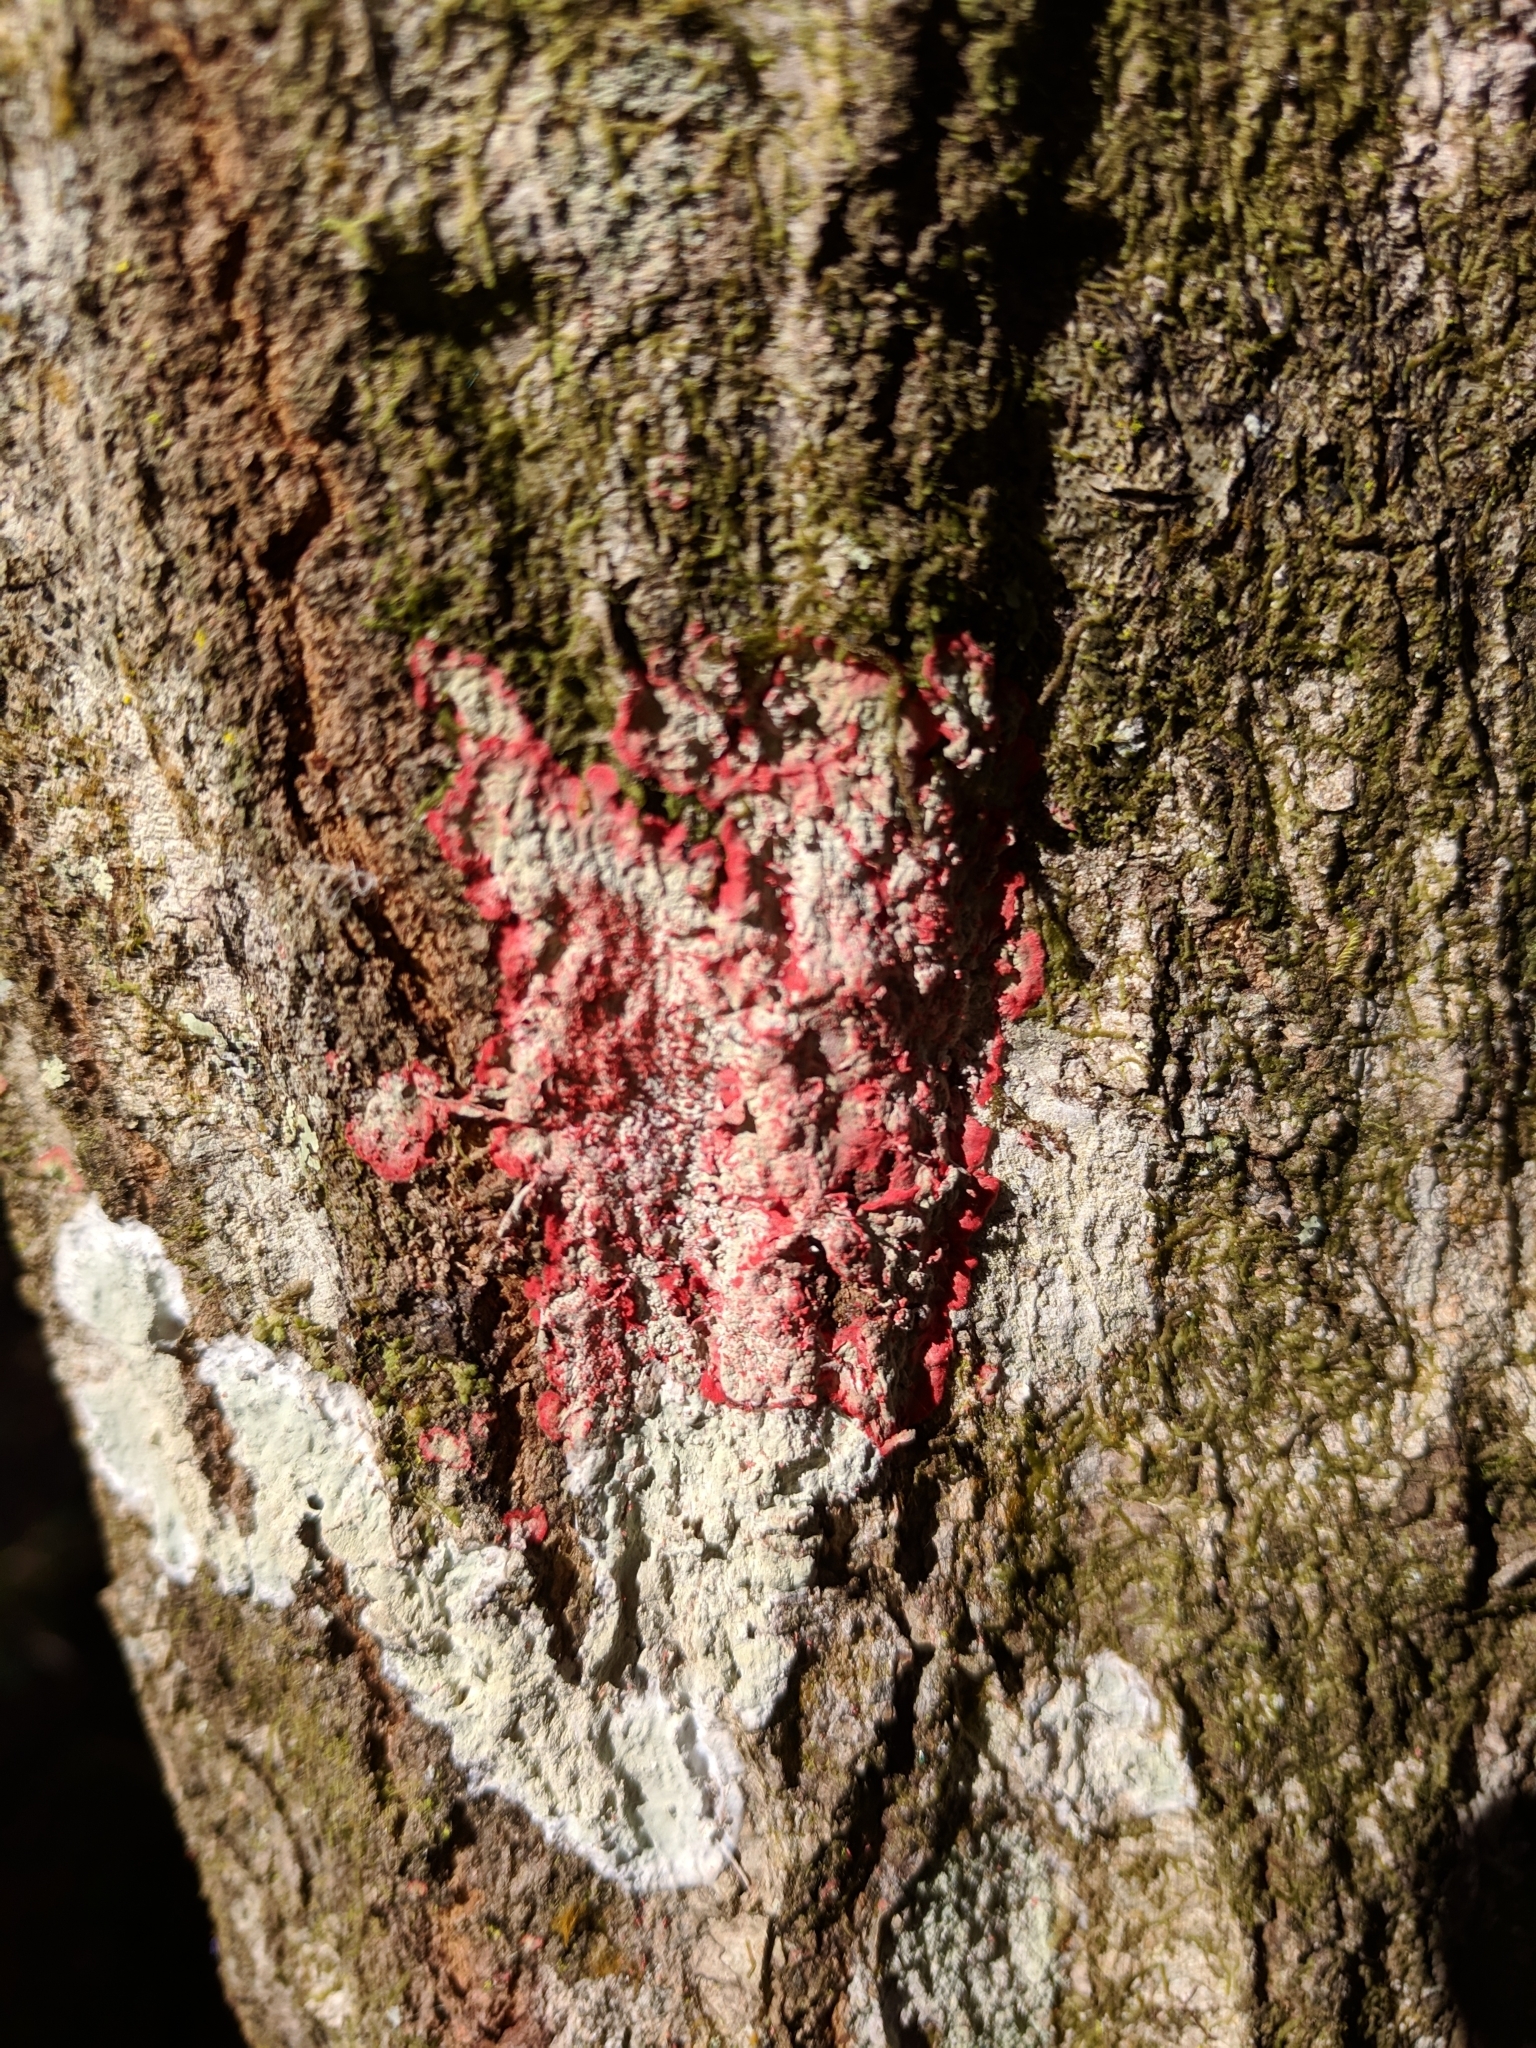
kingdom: Fungi
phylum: Ascomycota
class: Arthoniomycetes
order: Arthoniales
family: Arthoniaceae
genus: Herpothallon
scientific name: Herpothallon rubrocinctum
